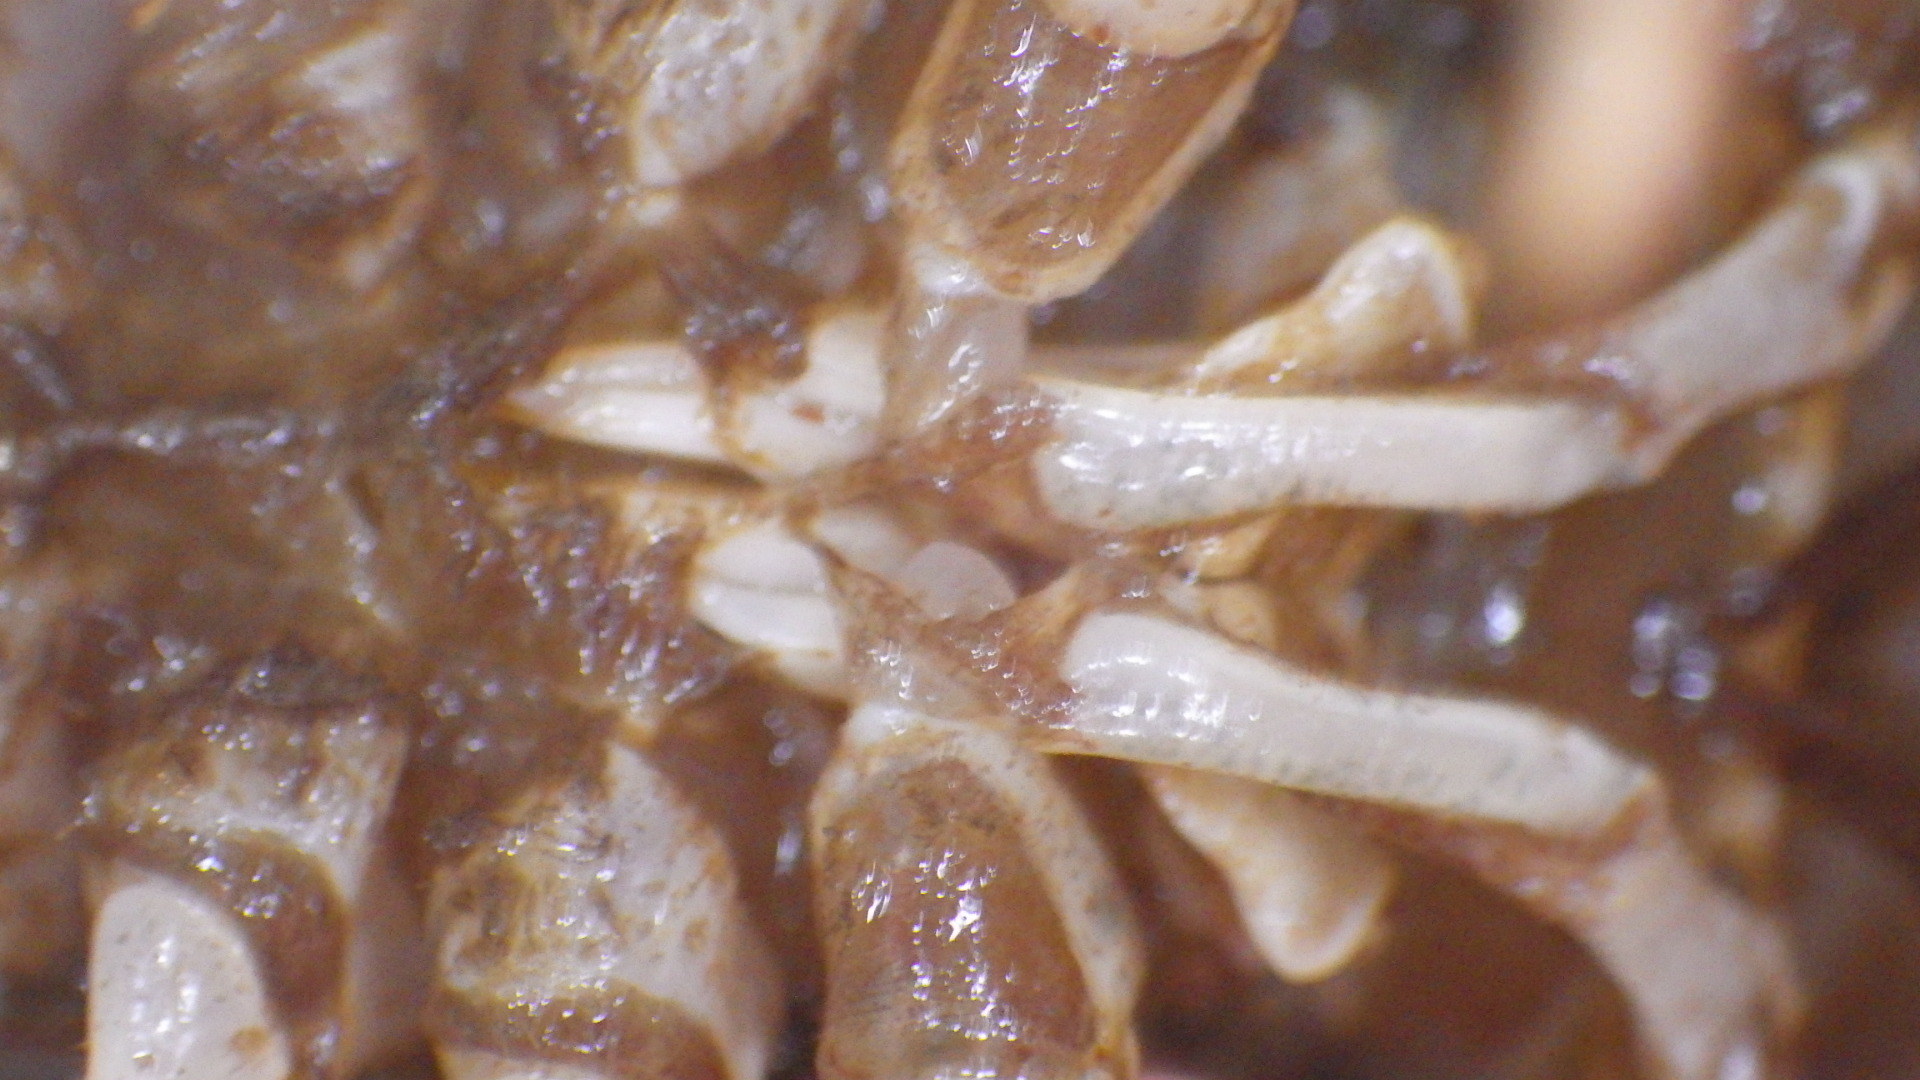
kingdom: Animalia
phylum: Arthropoda
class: Malacostraca
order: Decapoda
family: Cambaridae
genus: Faxonius
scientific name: Faxonius limosus
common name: American crayfish
